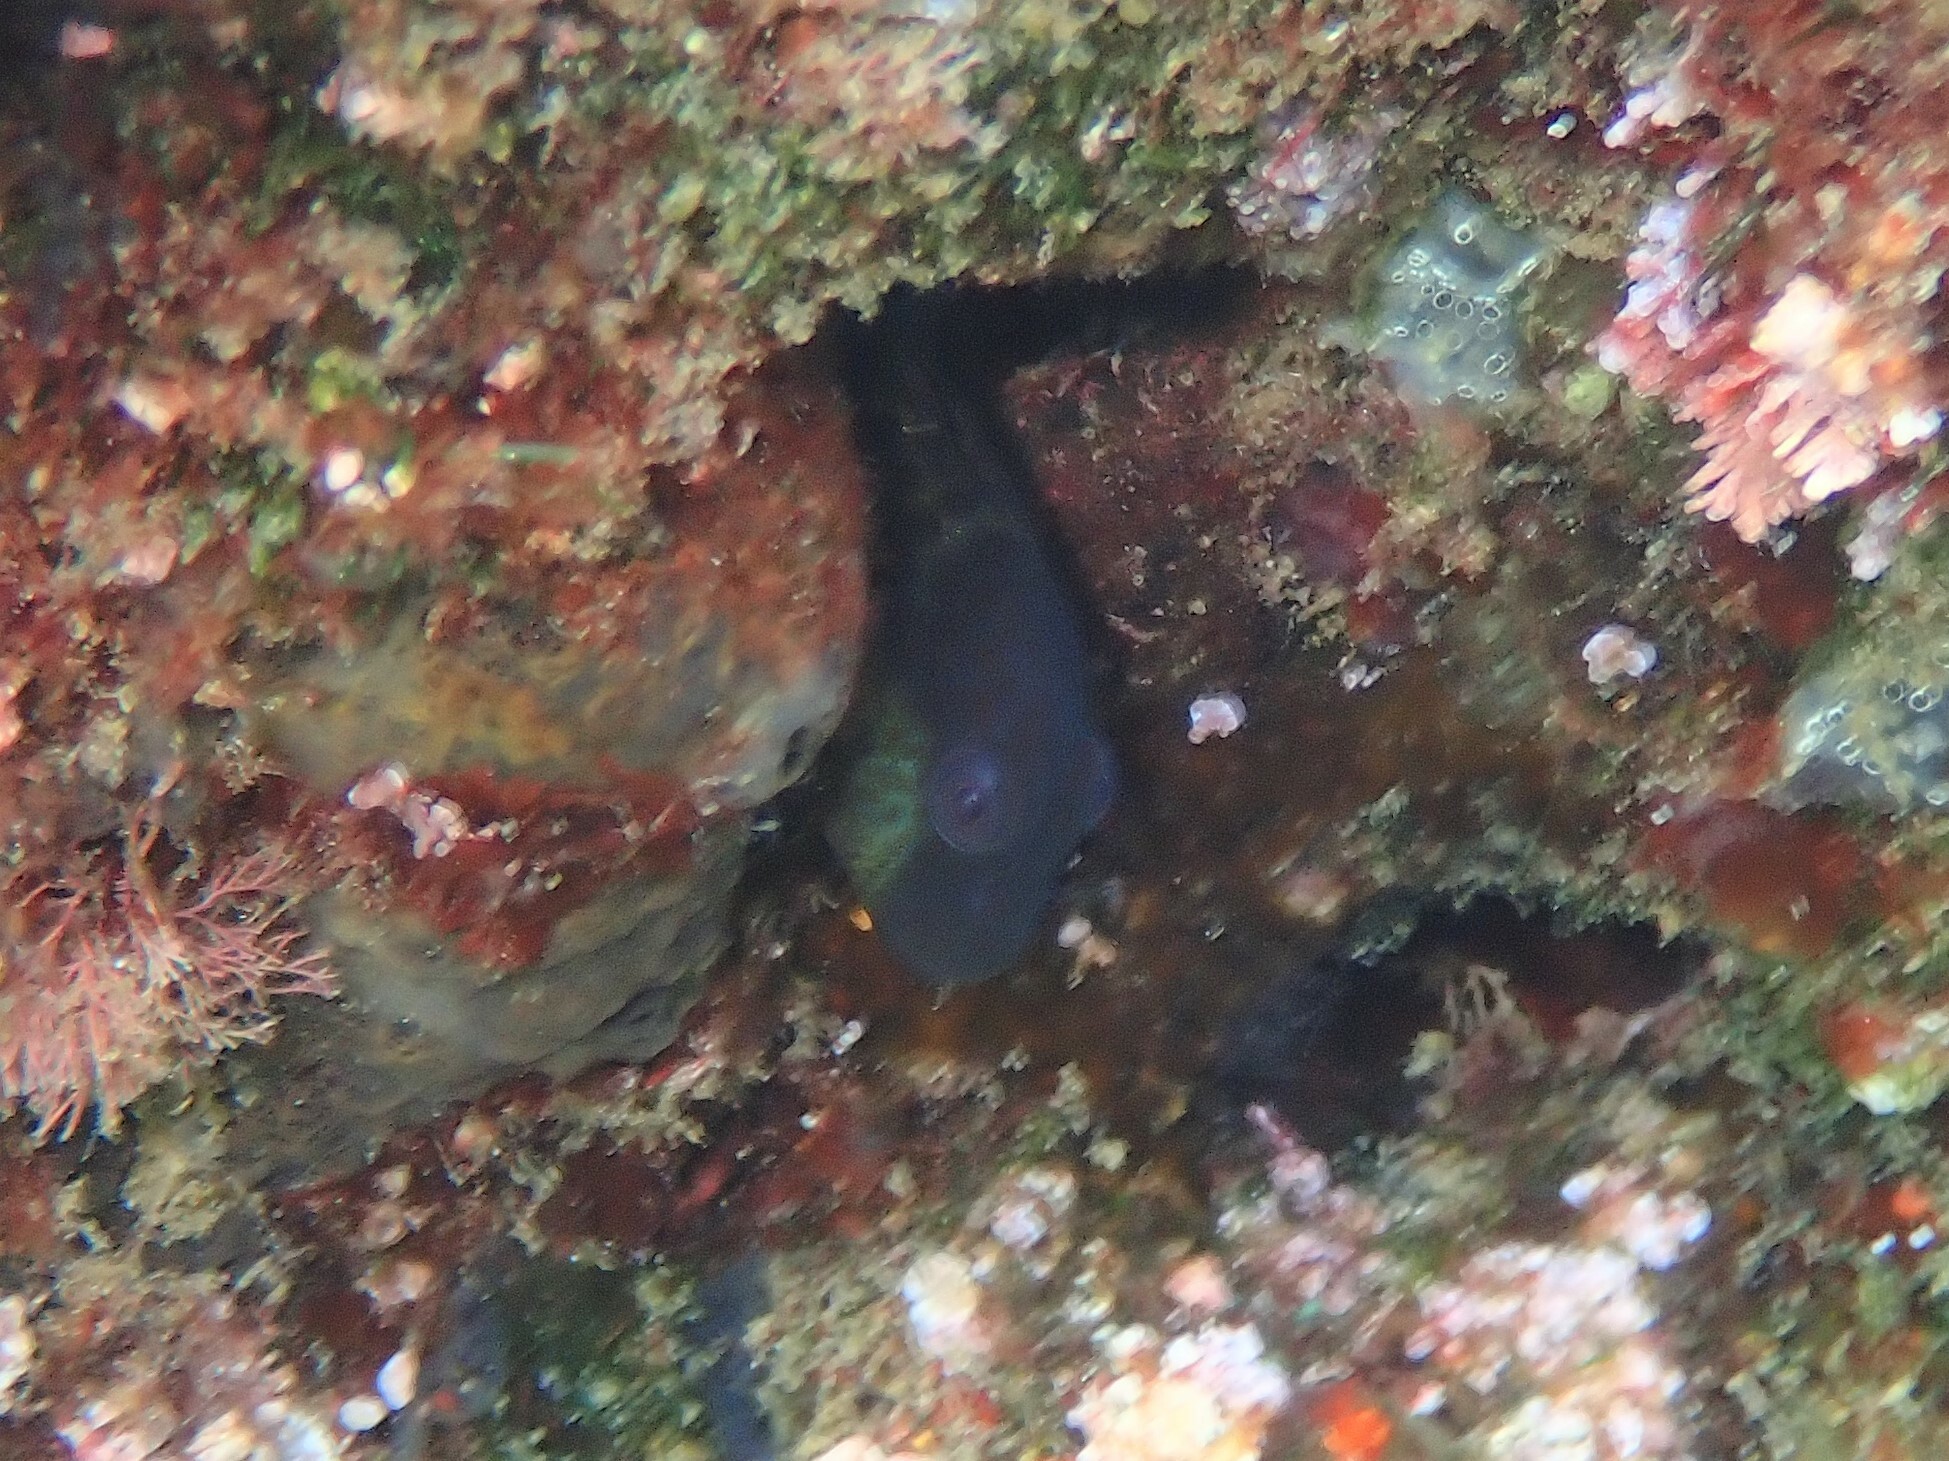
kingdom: Animalia
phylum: Chordata
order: Perciformes
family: Blenniidae
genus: Microlipophrys
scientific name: Microlipophrys canevae
